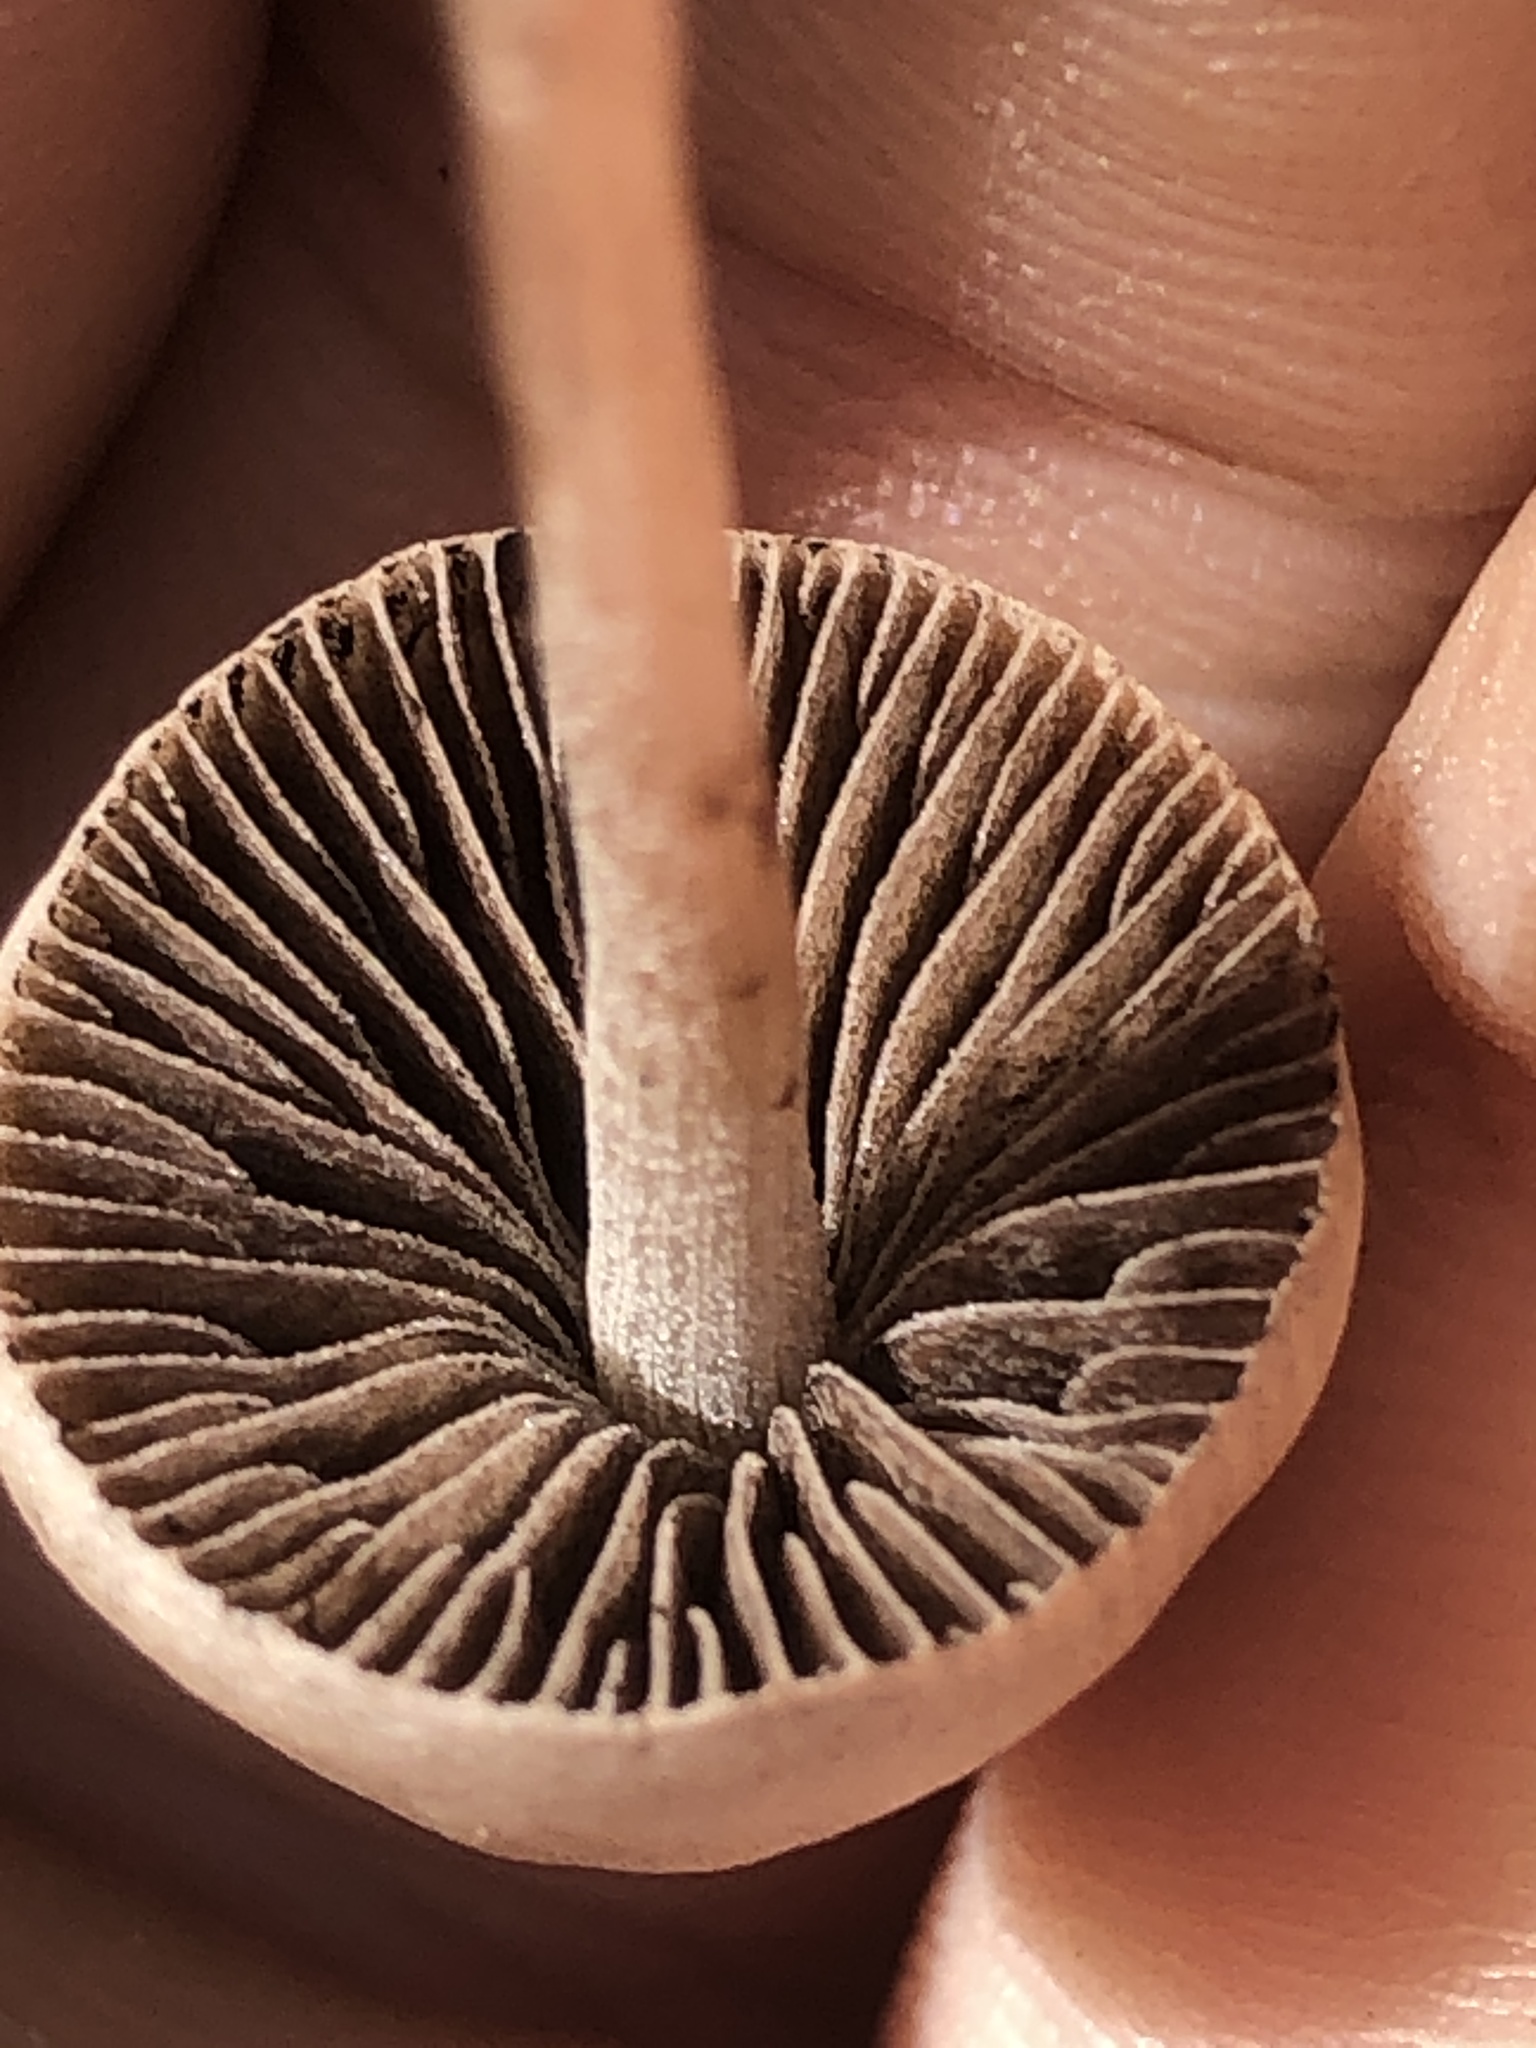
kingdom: Fungi
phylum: Basidiomycota
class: Agaricomycetes
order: Agaricales
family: Bolbitiaceae
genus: Panaeolina
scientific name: Panaeolina foenisecii
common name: Brown hay cap
